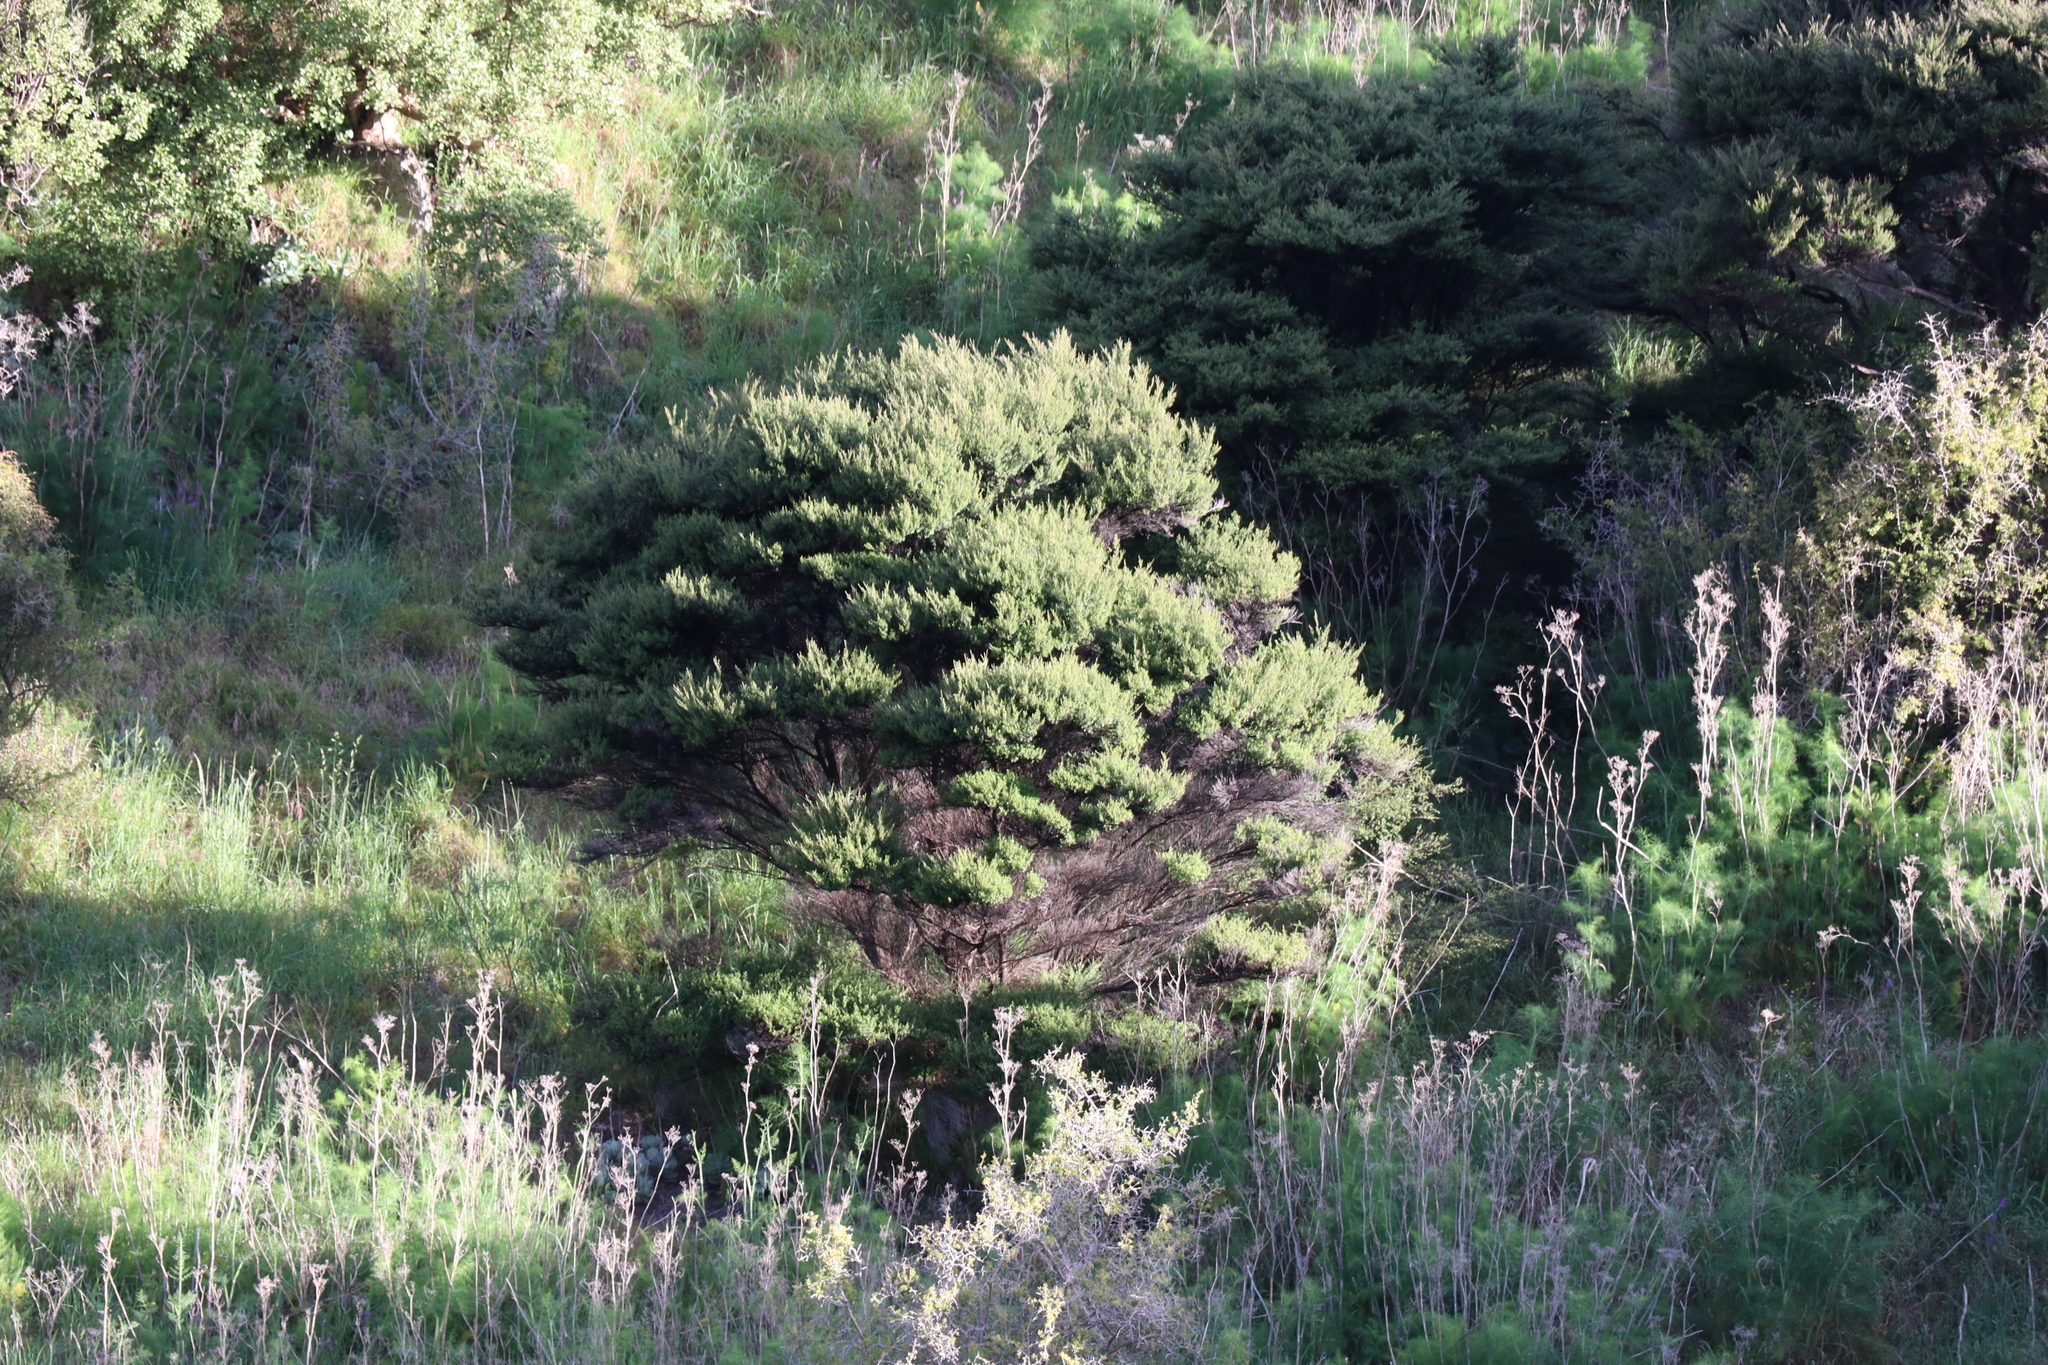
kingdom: Plantae
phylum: Tracheophyta
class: Magnoliopsida
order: Myrtales
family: Myrtaceae
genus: Leptospermum
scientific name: Leptospermum scoparium
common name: Broom tea-tree
